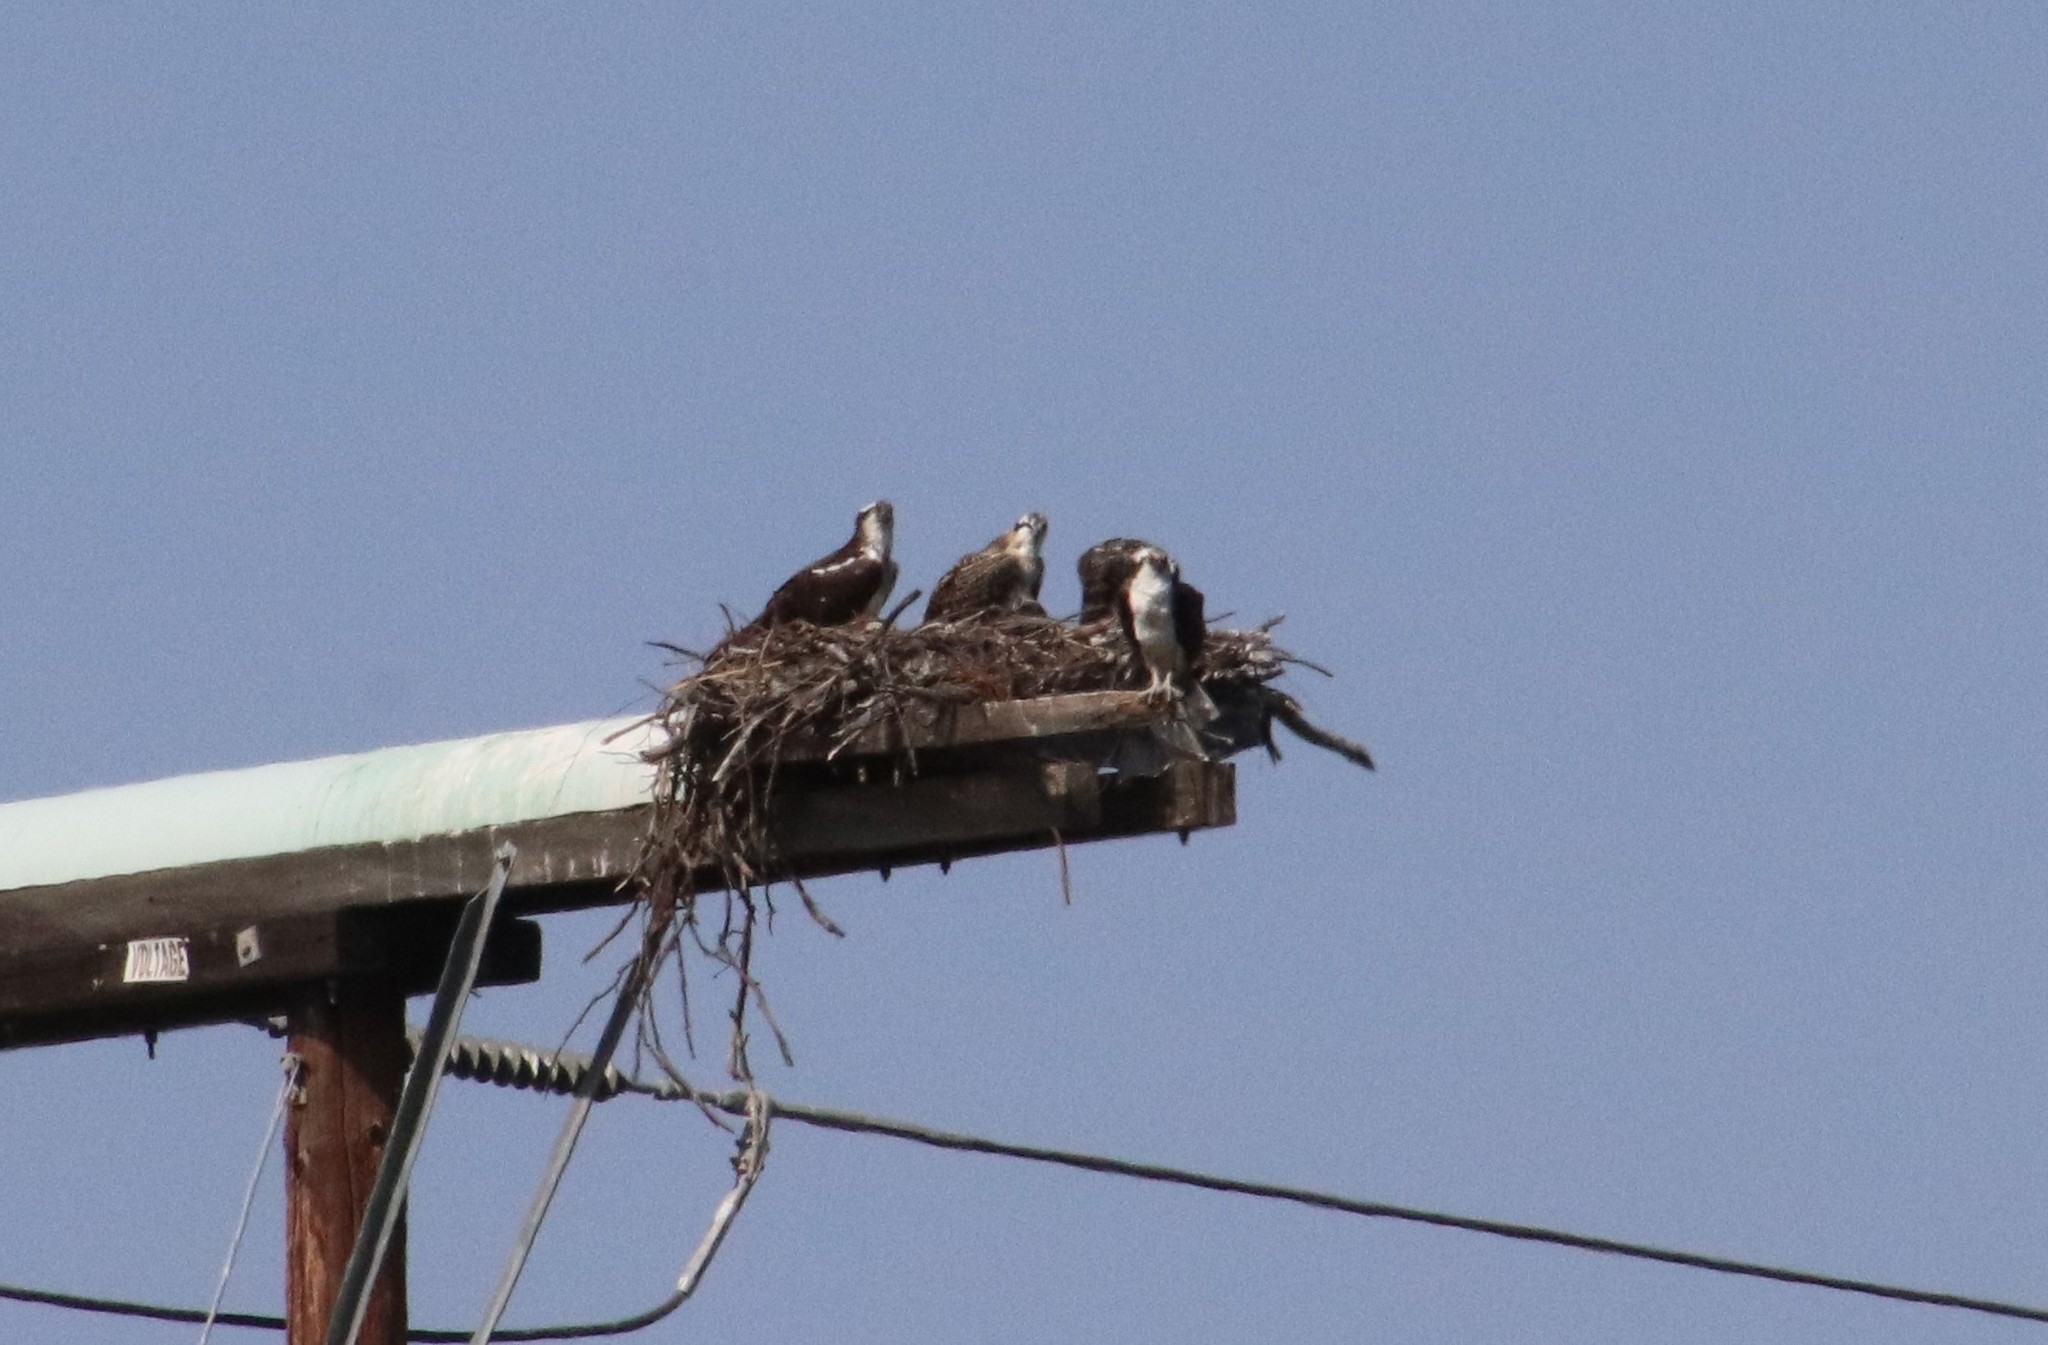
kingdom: Animalia
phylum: Chordata
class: Aves
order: Accipitriformes
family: Pandionidae
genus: Pandion
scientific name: Pandion haliaetus
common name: Osprey
